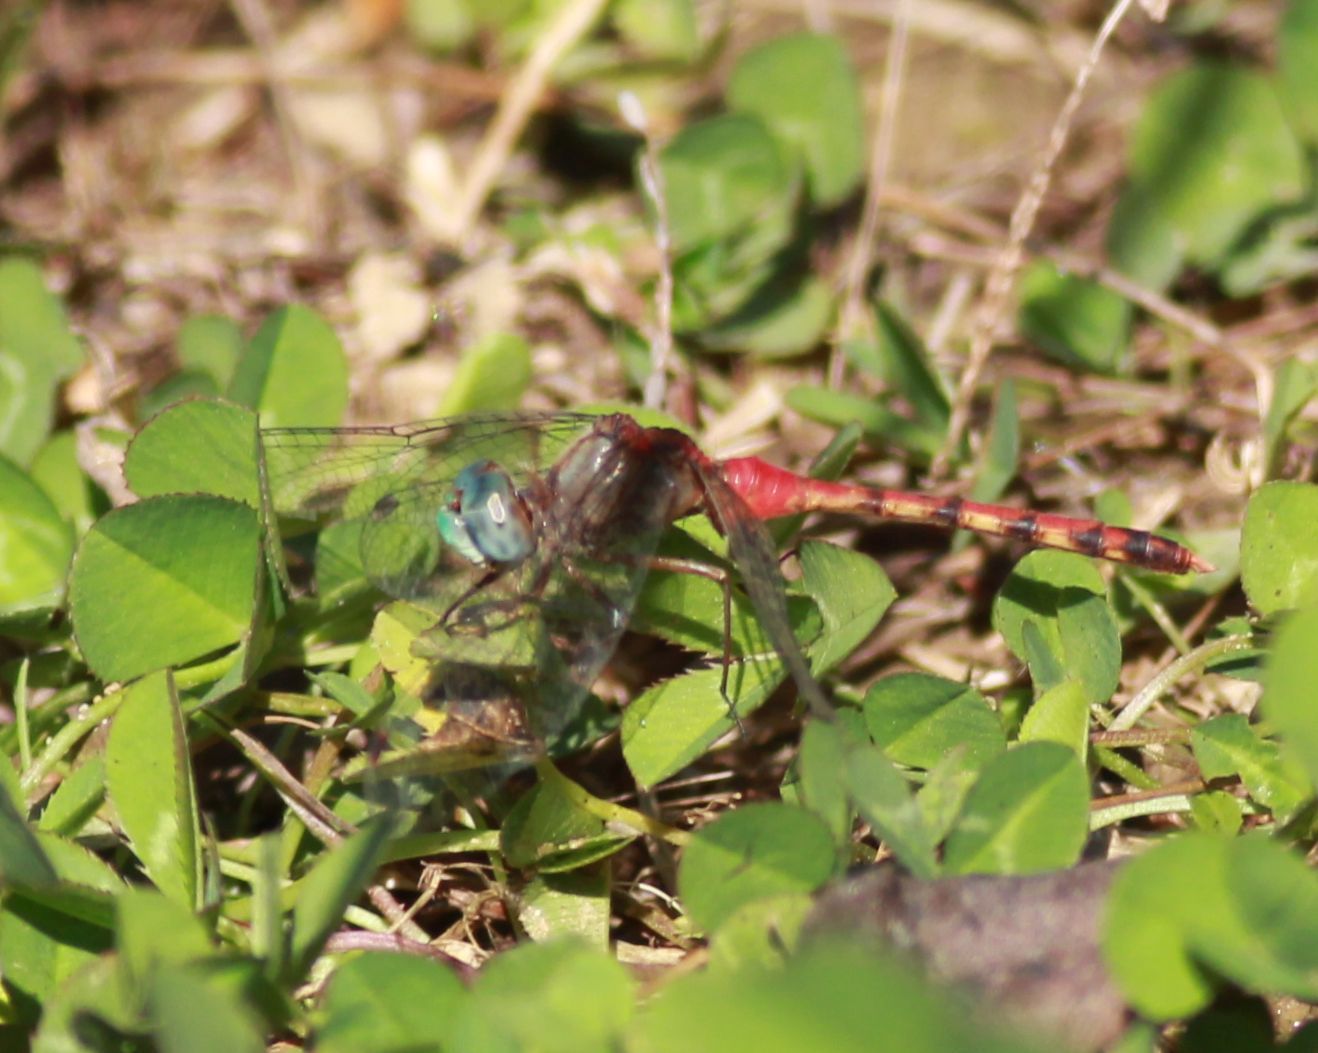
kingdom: Animalia
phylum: Arthropoda
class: Insecta
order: Odonata
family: Libellulidae
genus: Sympetrum
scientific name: Sympetrum ambiguum
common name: Blue-faced meadowhawk
